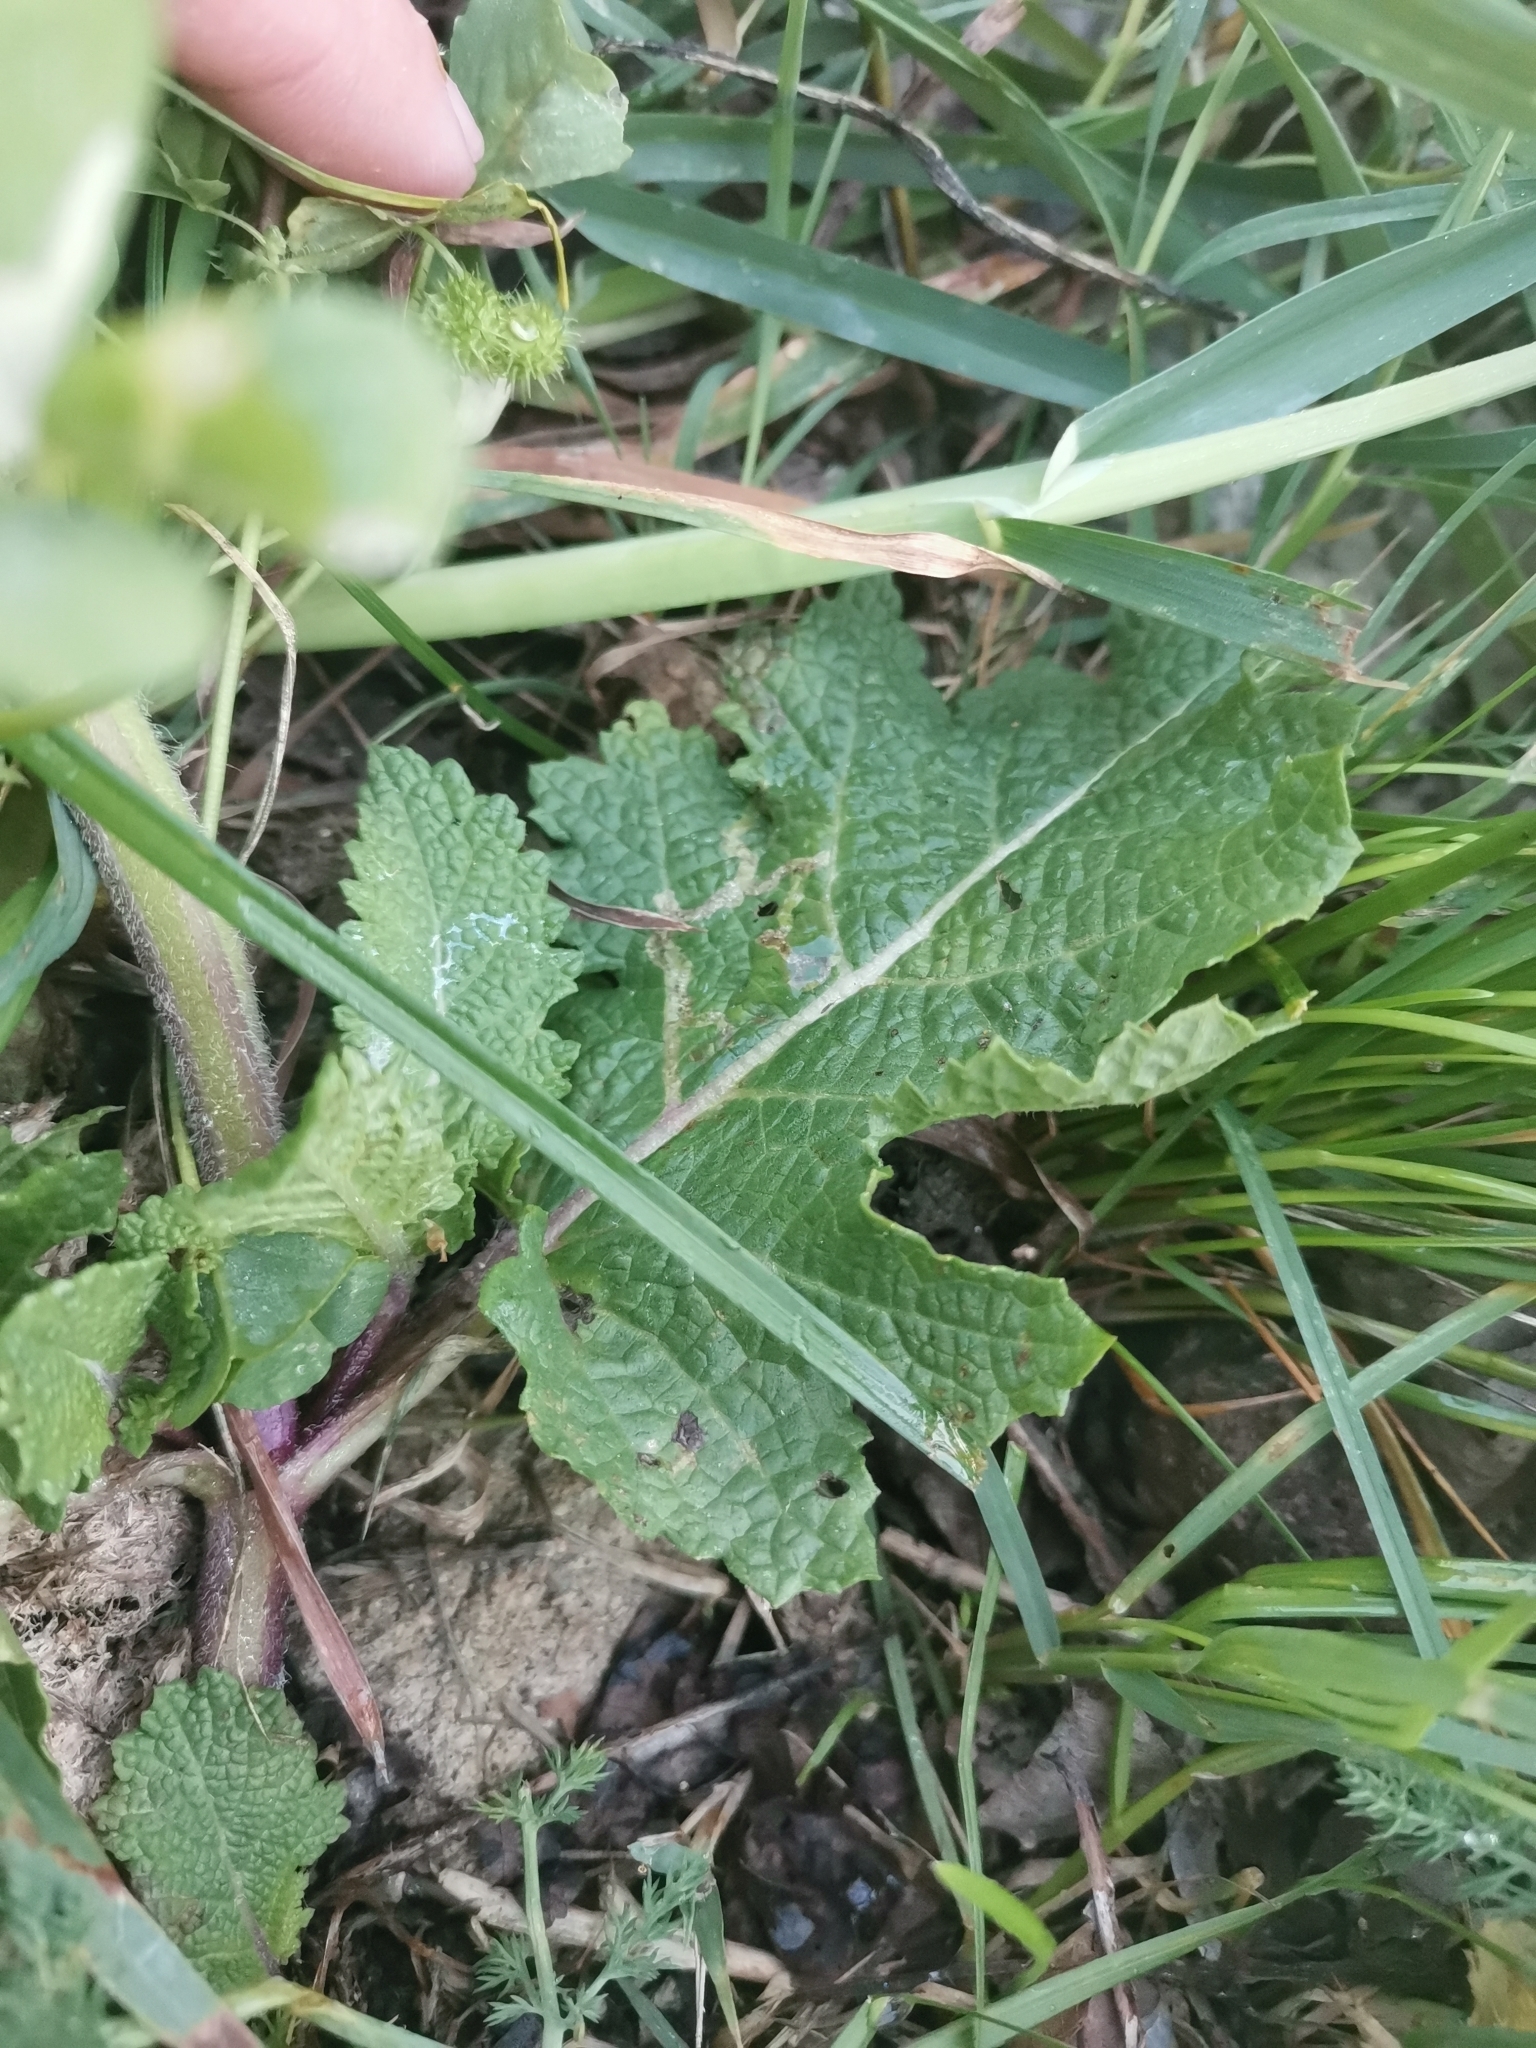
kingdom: Plantae
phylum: Tracheophyta
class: Magnoliopsida
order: Lamiales
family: Lamiaceae
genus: Salvia
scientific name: Salvia verbenaca
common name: Wild clary
